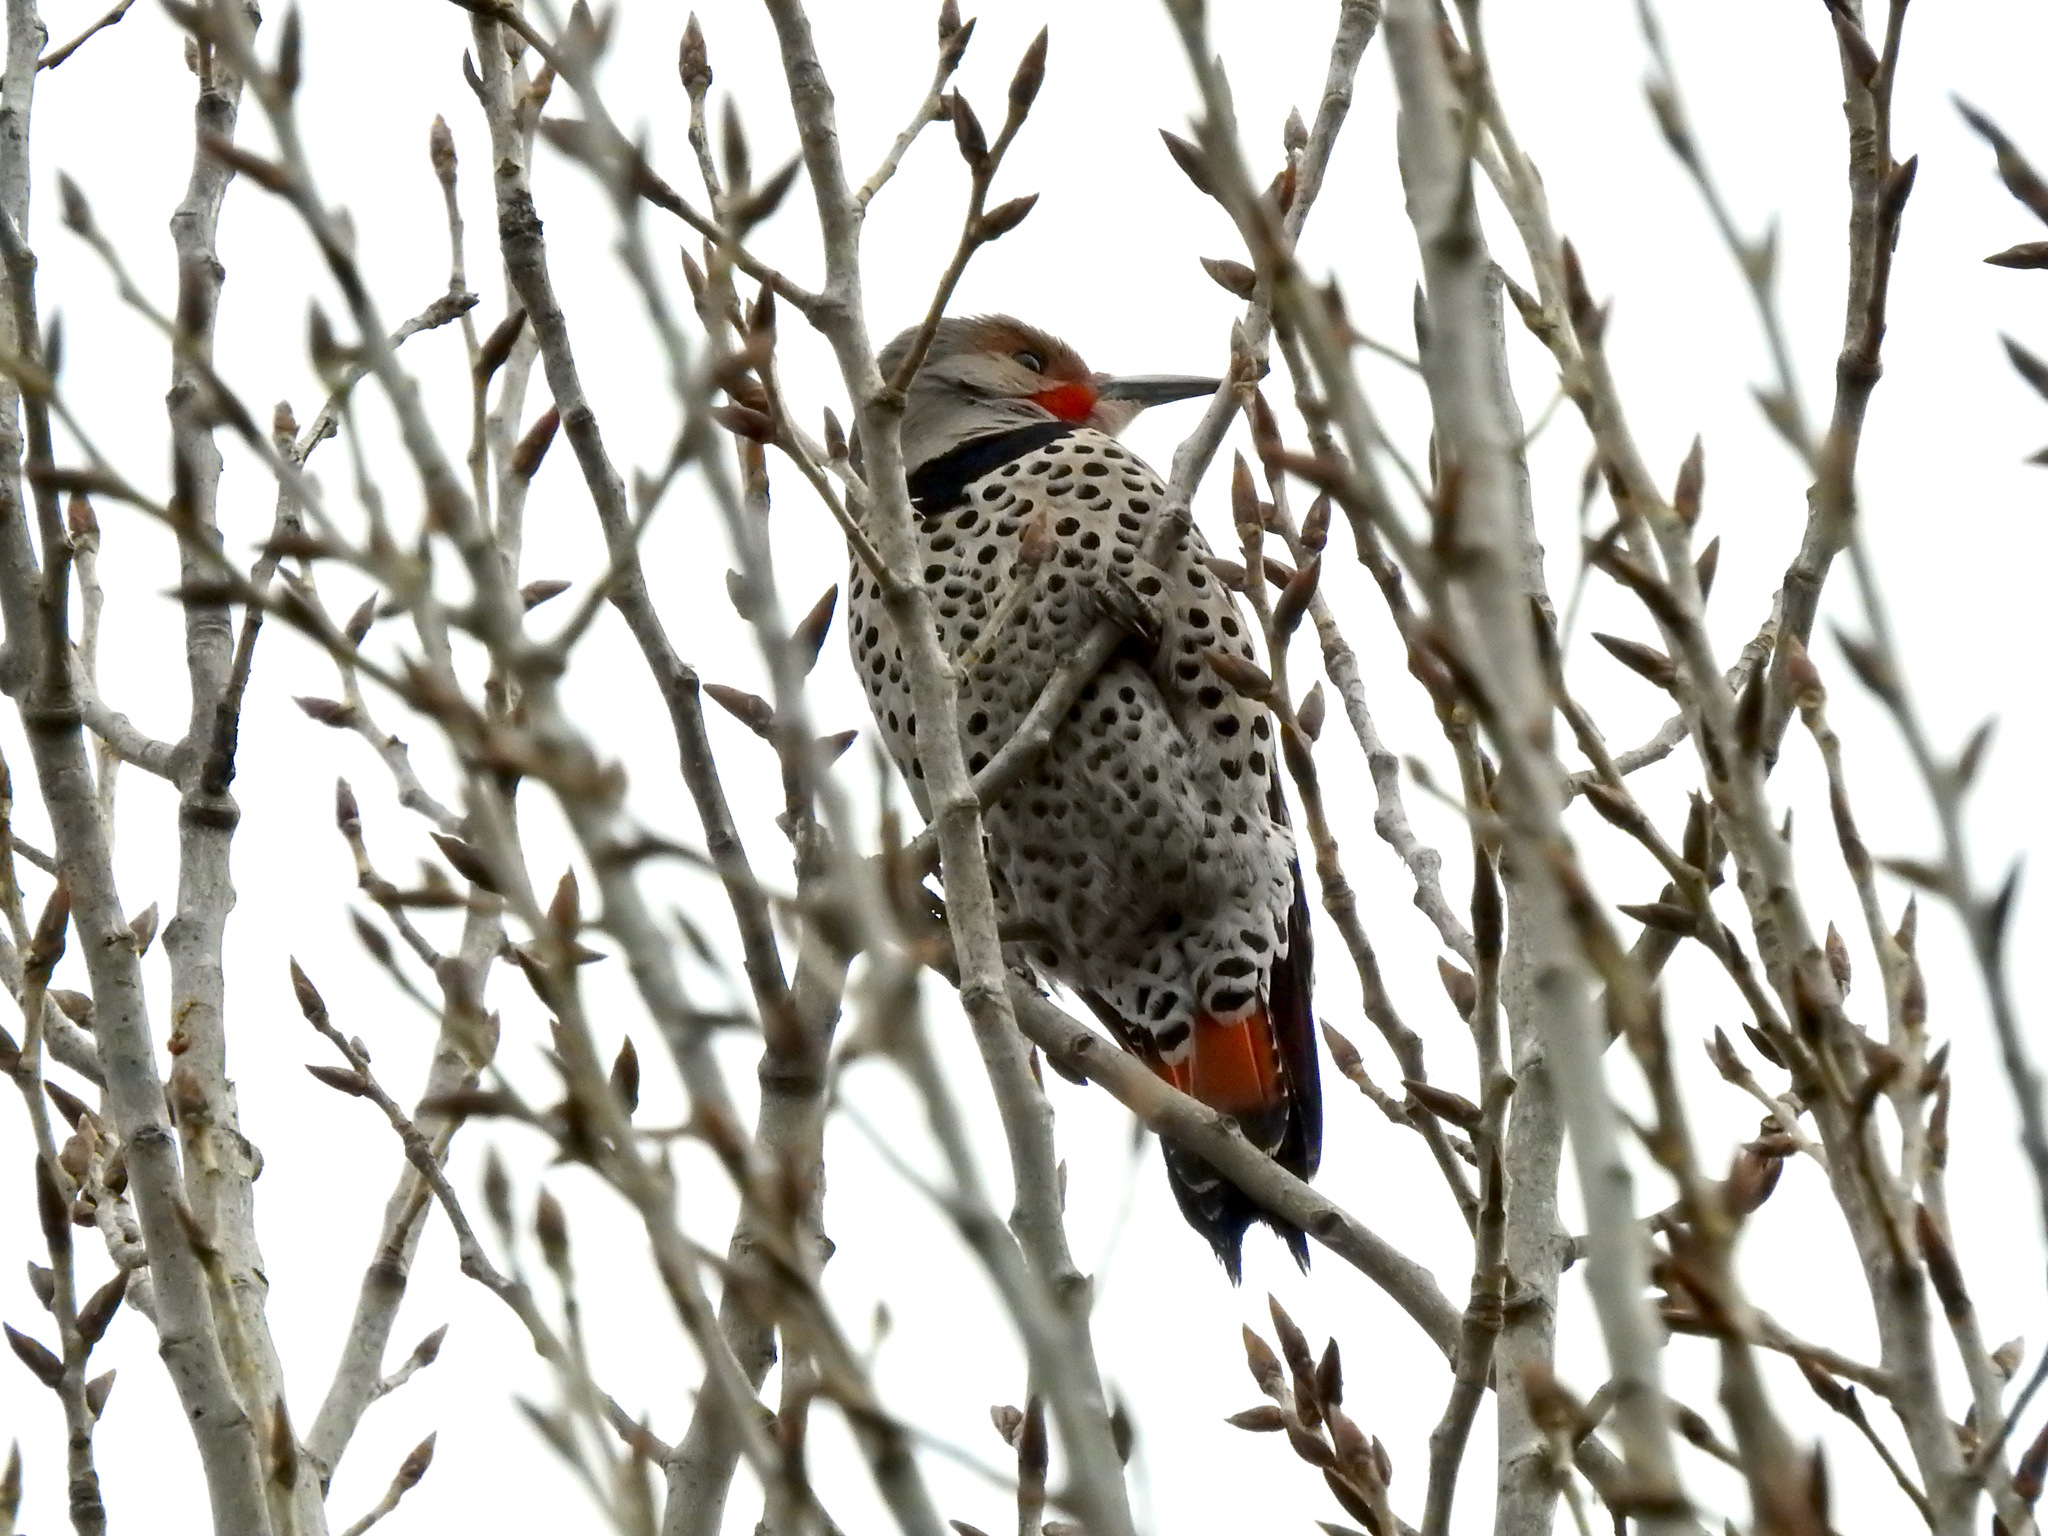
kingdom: Animalia
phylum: Chordata
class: Aves
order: Piciformes
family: Picidae
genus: Colaptes
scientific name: Colaptes auratus
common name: Northern flicker
